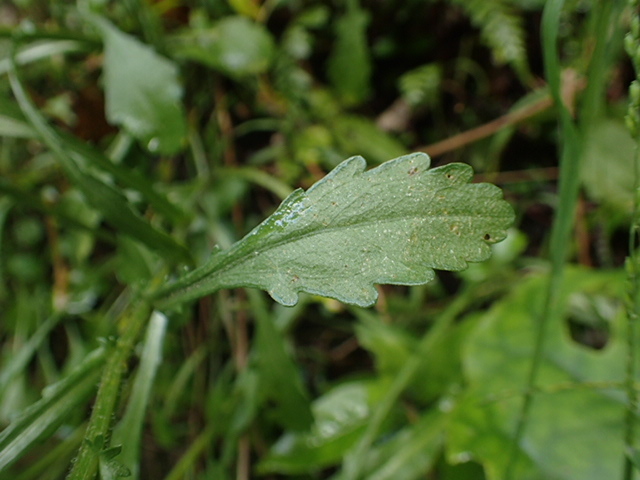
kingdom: Plantae
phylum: Tracheophyta
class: Magnoliopsida
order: Asterales
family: Asteraceae
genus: Erigeron
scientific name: Erigeron karvinskianus
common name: Mexican fleabane
